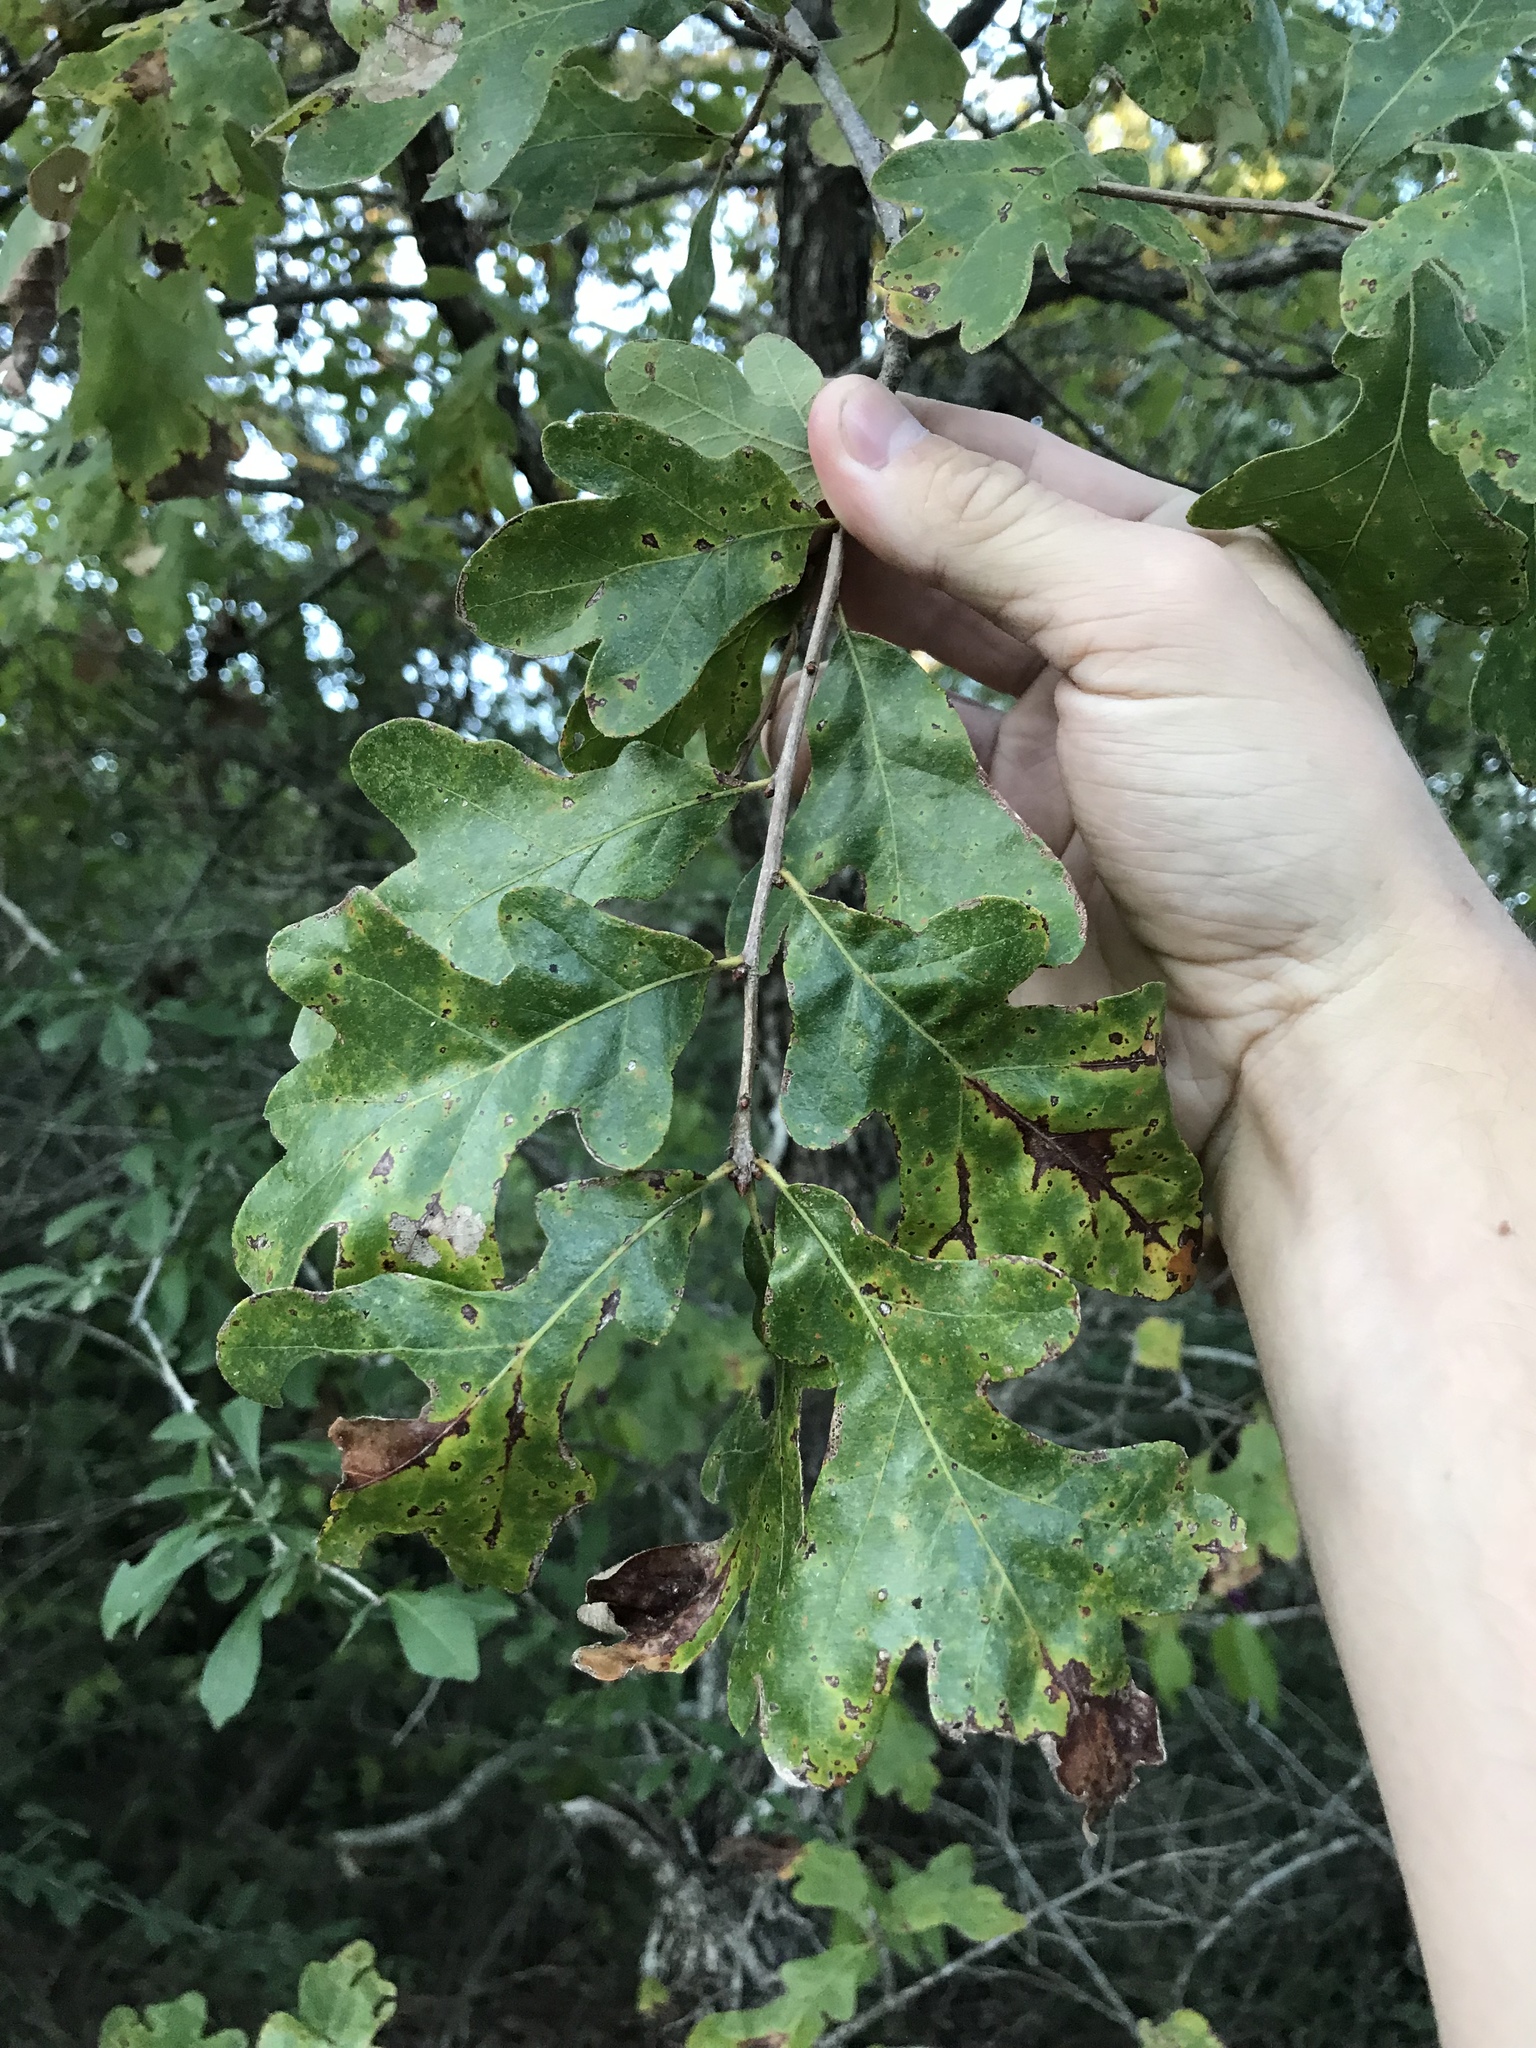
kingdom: Plantae
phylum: Tracheophyta
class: Magnoliopsida
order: Fagales
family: Fagaceae
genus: Quercus
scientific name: Quercus stellata
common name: Post oak
